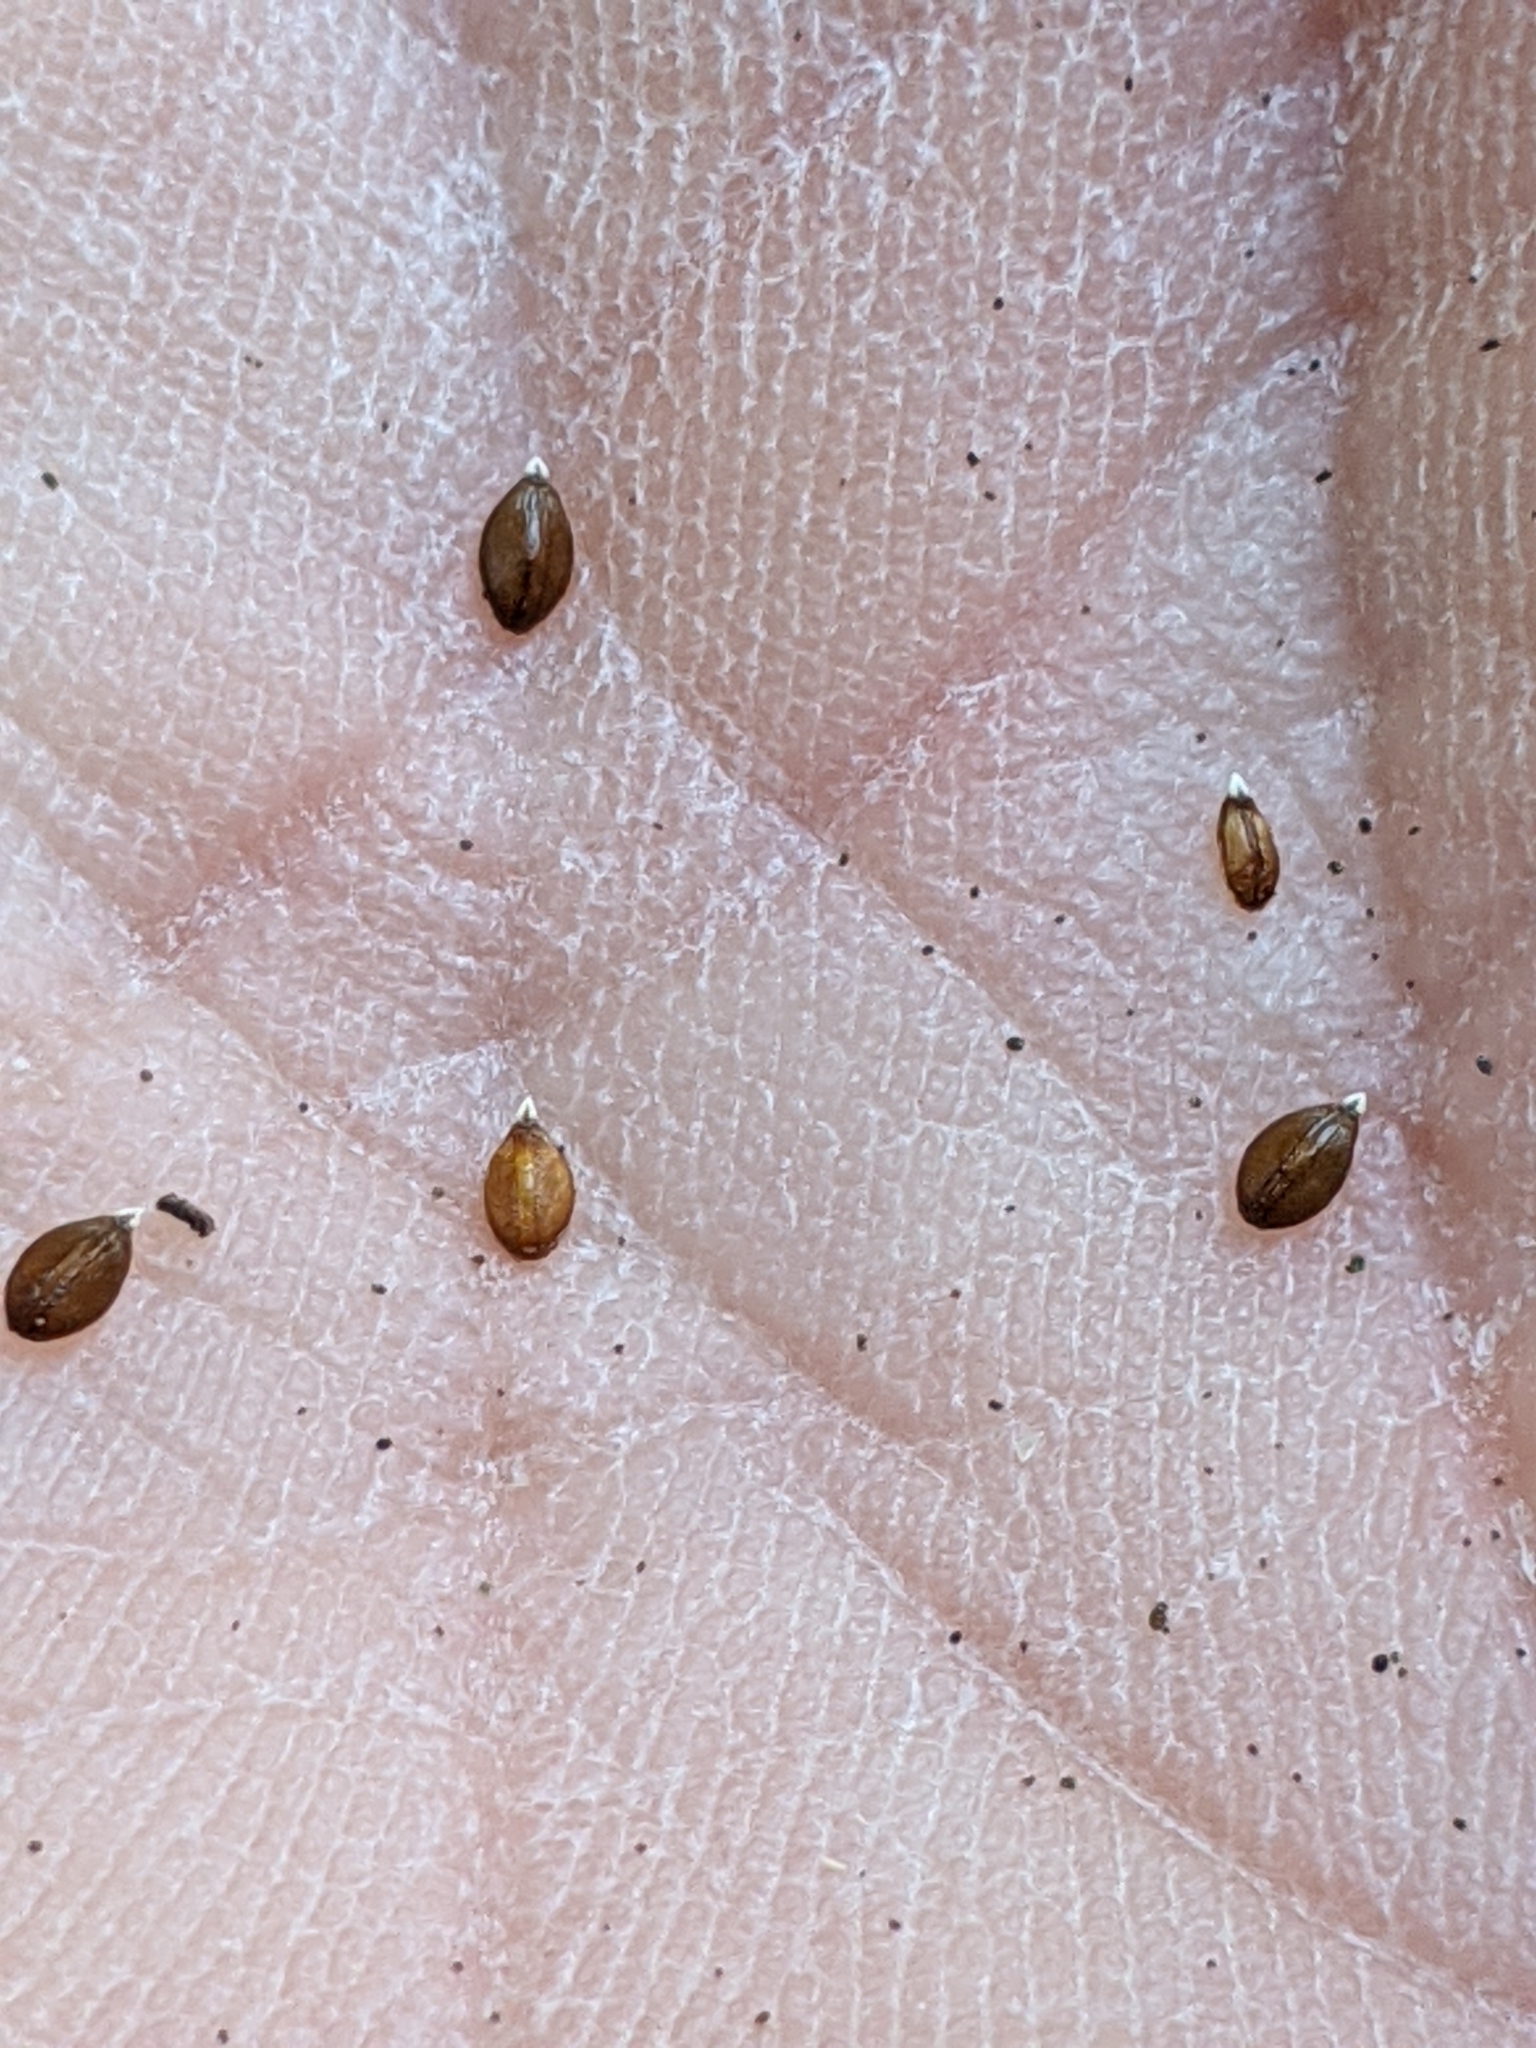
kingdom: Plantae
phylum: Tracheophyta
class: Magnoliopsida
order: Lamiales
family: Lamiaceae
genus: Prunella
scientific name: Prunella vulgaris
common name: Heal-all
